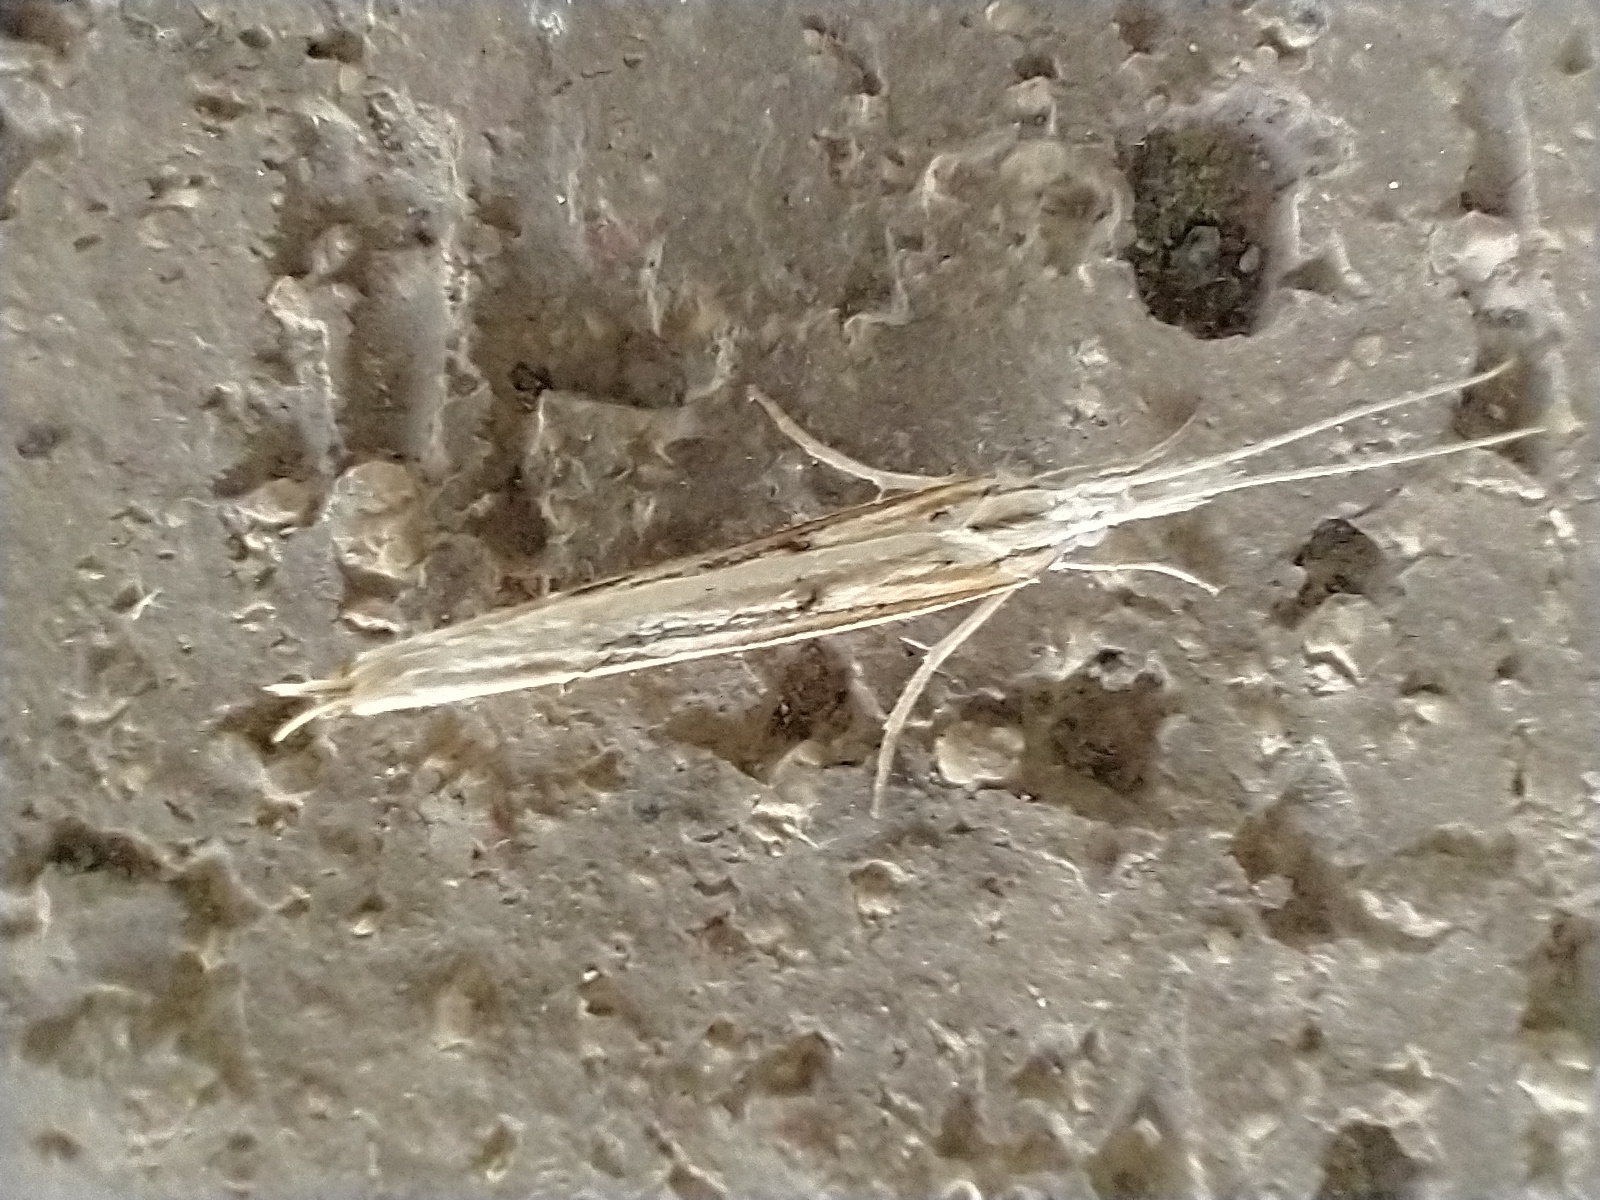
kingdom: Animalia
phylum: Arthropoda
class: Insecta
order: Lepidoptera
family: Ypsolophidae
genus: Ypsolopha
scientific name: Ypsolopha mucronella
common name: Spindle smudge
